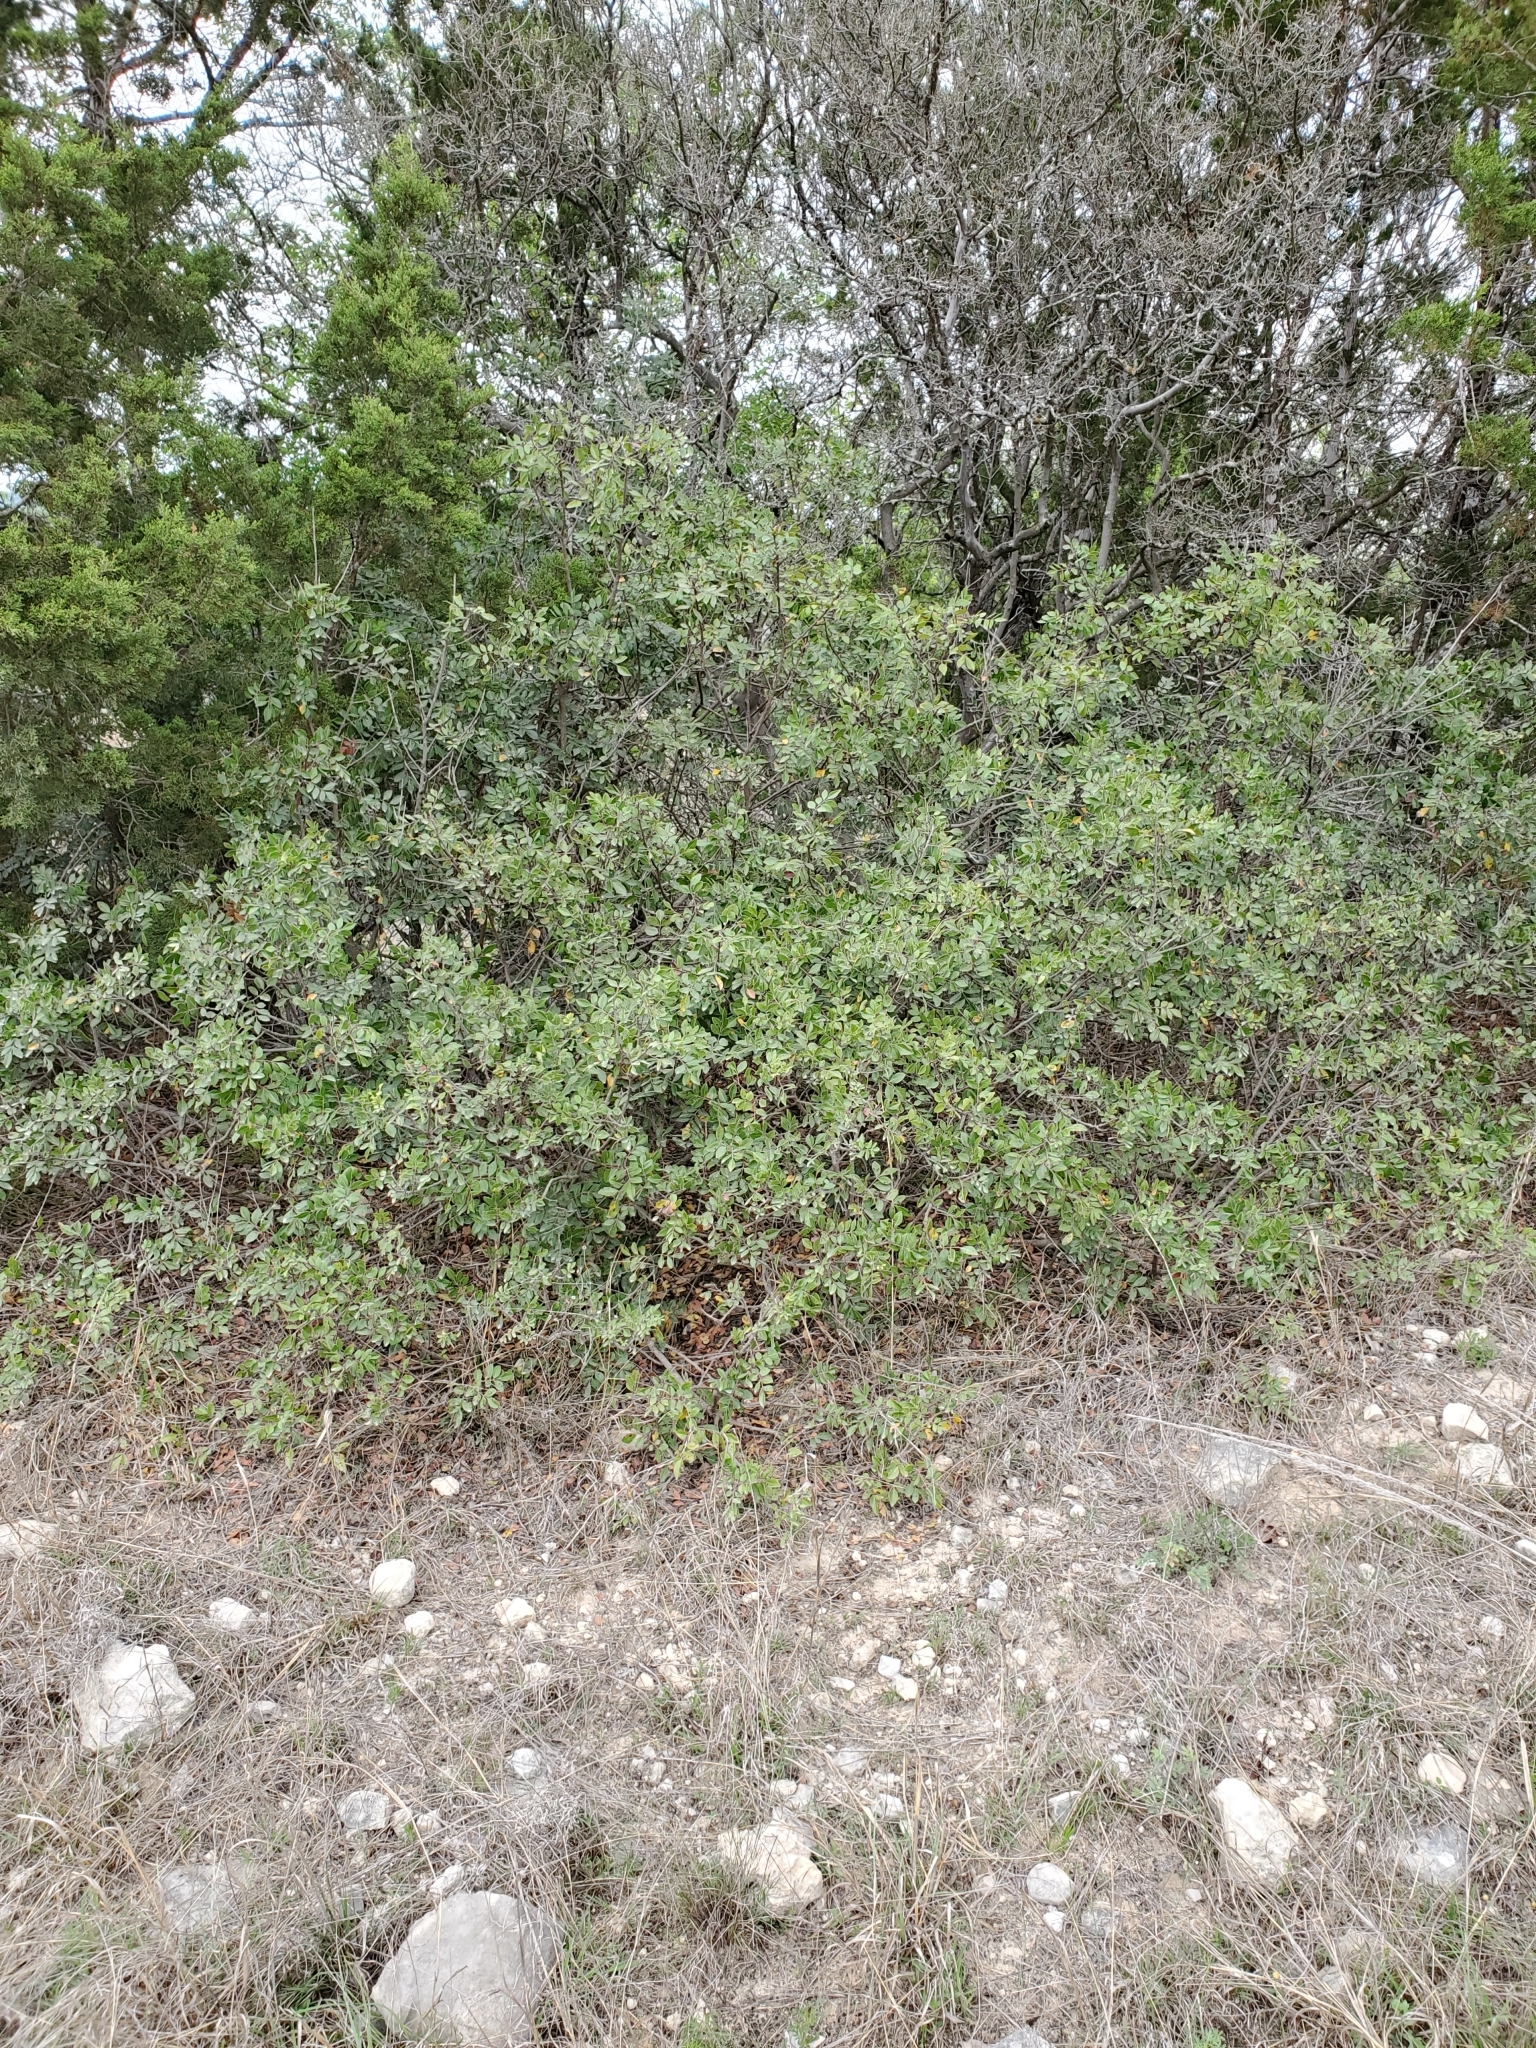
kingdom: Plantae
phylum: Tracheophyta
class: Magnoliopsida
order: Sapindales
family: Anacardiaceae
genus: Rhus
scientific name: Rhus virens
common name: Evergreen sumac
